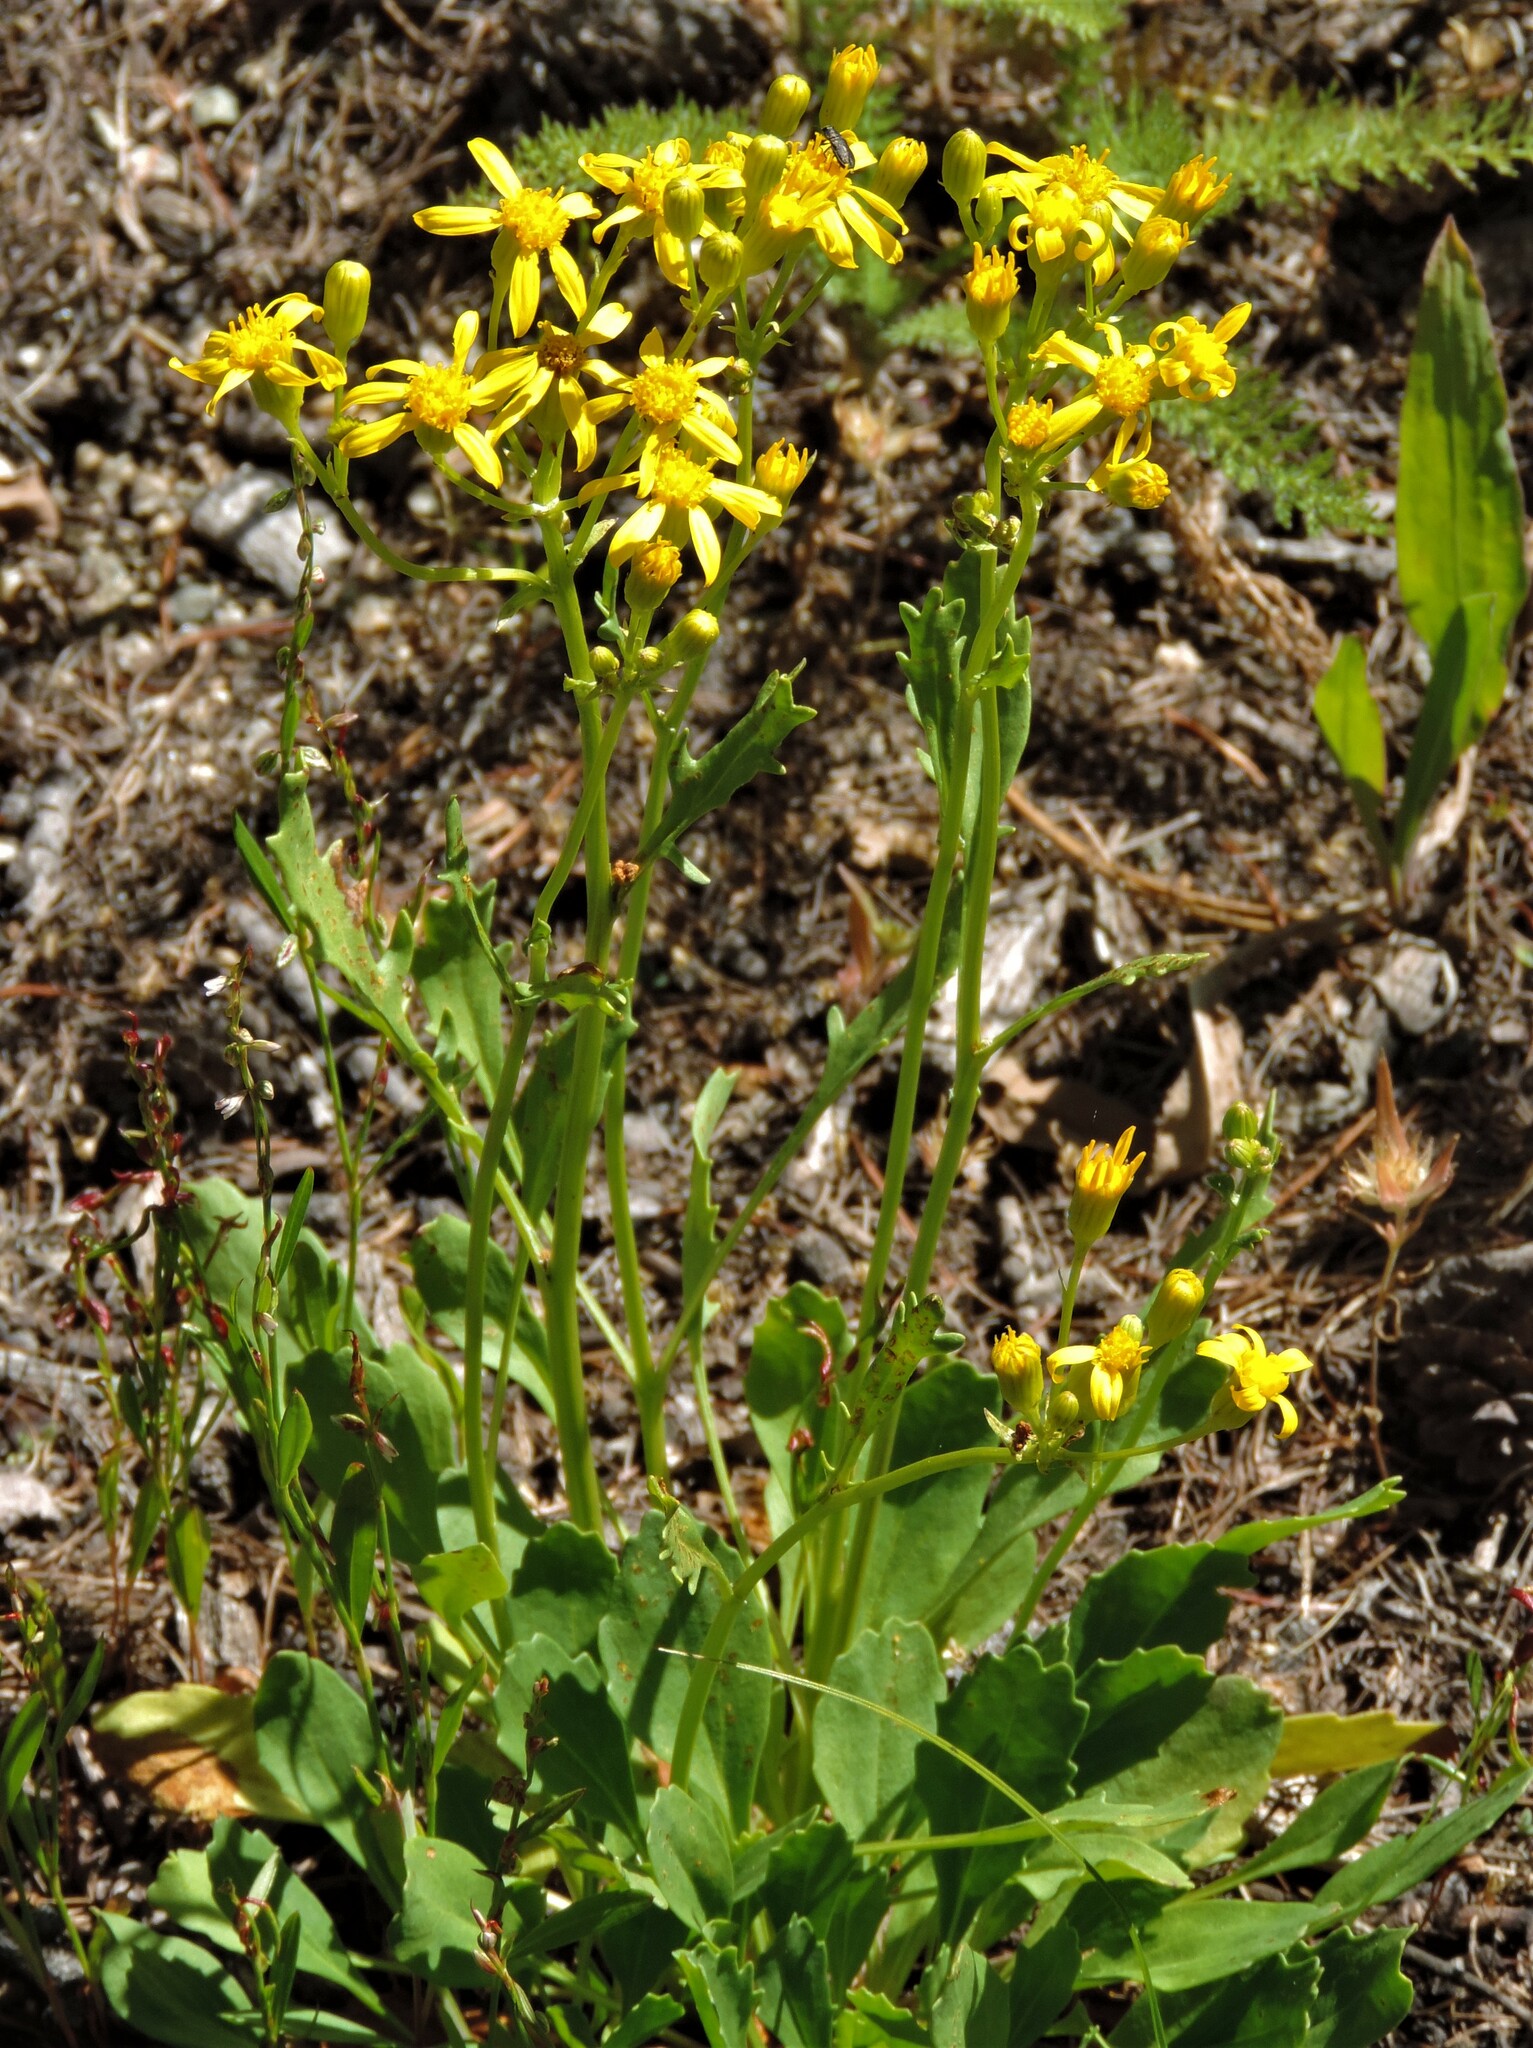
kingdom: Plantae
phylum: Tracheophyta
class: Magnoliopsida
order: Asterales
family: Asteraceae
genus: Packera
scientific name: Packera streptanthifolia
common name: Rocky mountain butterweed
